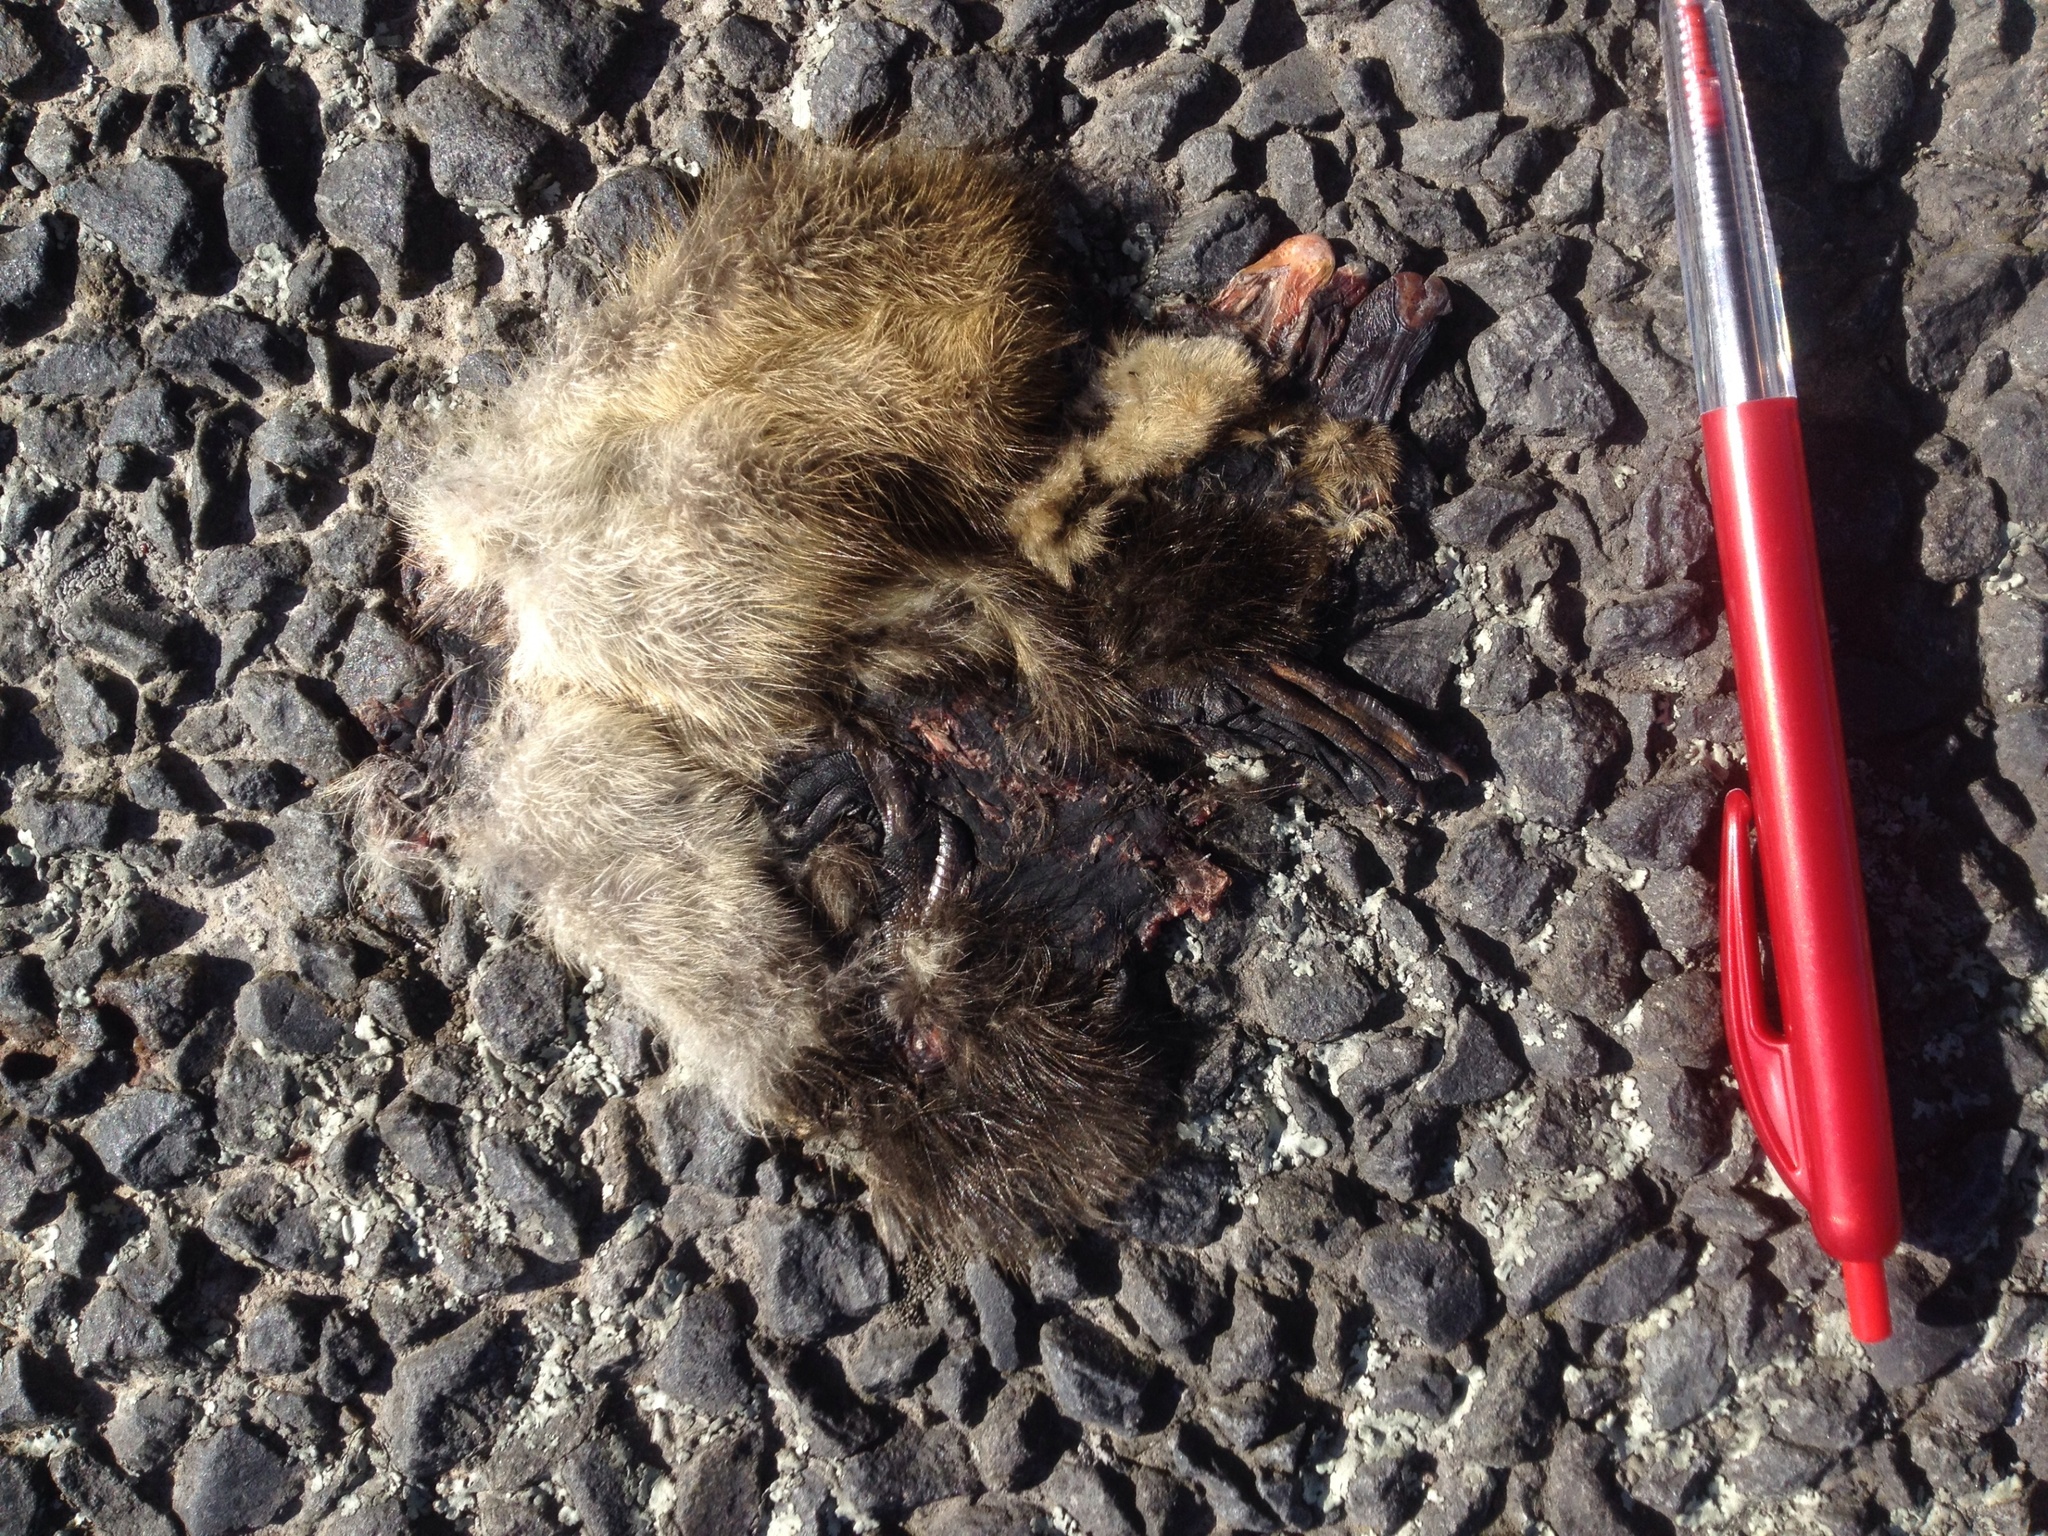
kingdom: Animalia
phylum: Chordata
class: Aves
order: Anseriformes
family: Anatidae
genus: Anas
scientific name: Anas platyrhynchos
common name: Mallard
